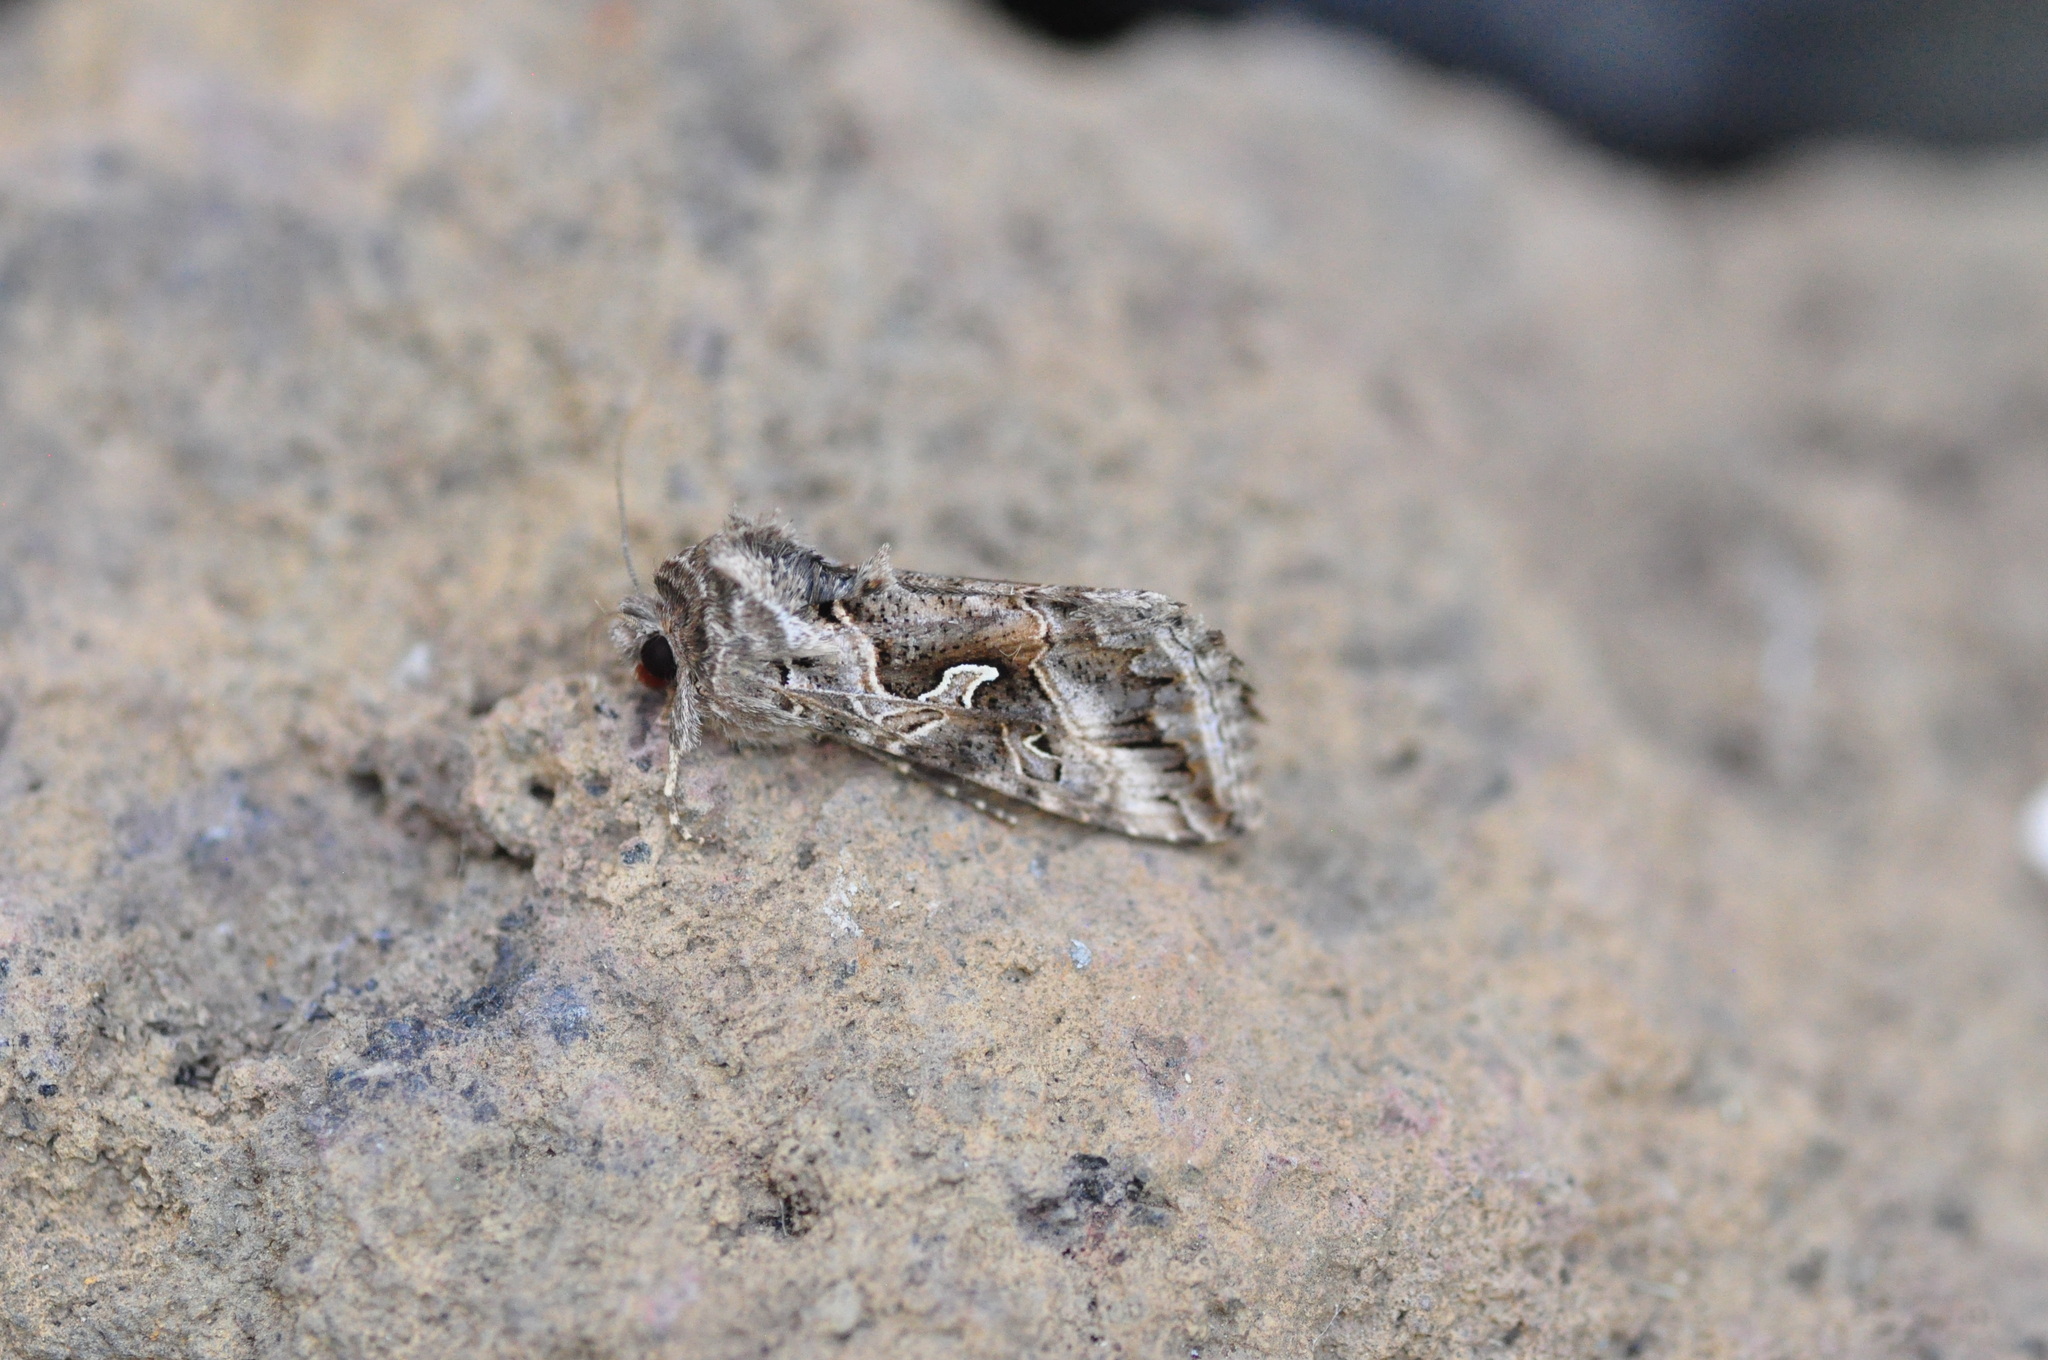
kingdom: Animalia
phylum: Arthropoda
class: Insecta
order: Lepidoptera
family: Noctuidae
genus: Cornutiplusia
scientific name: Cornutiplusia circumflexa
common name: Yorkshire y
